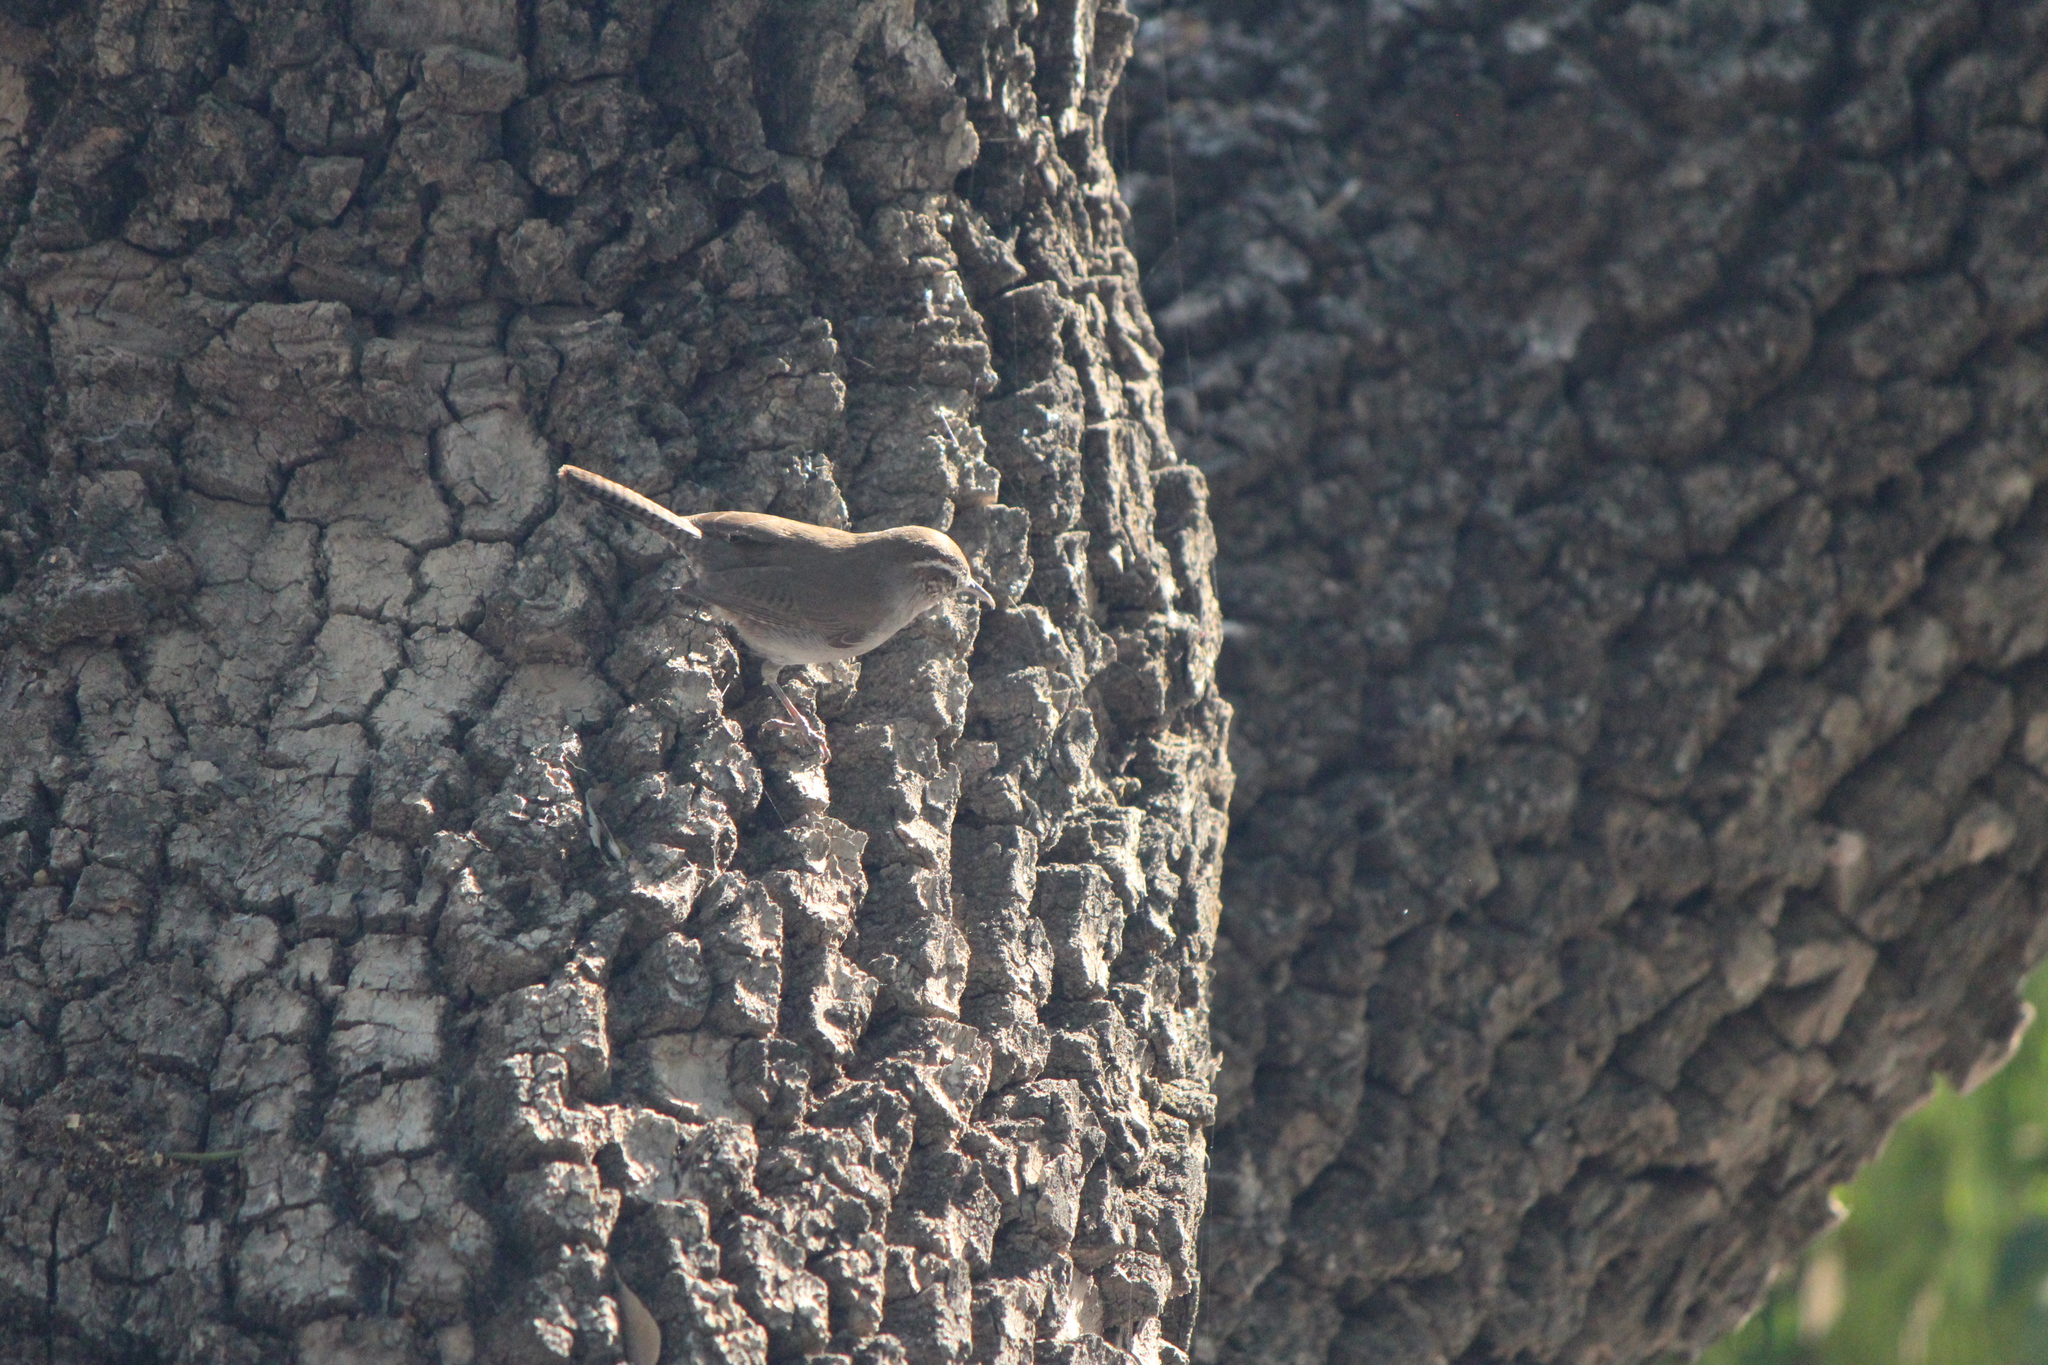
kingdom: Animalia
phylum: Chordata
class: Aves
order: Passeriformes
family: Troglodytidae
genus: Thryomanes
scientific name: Thryomanes bewickii
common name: Bewick's wren
